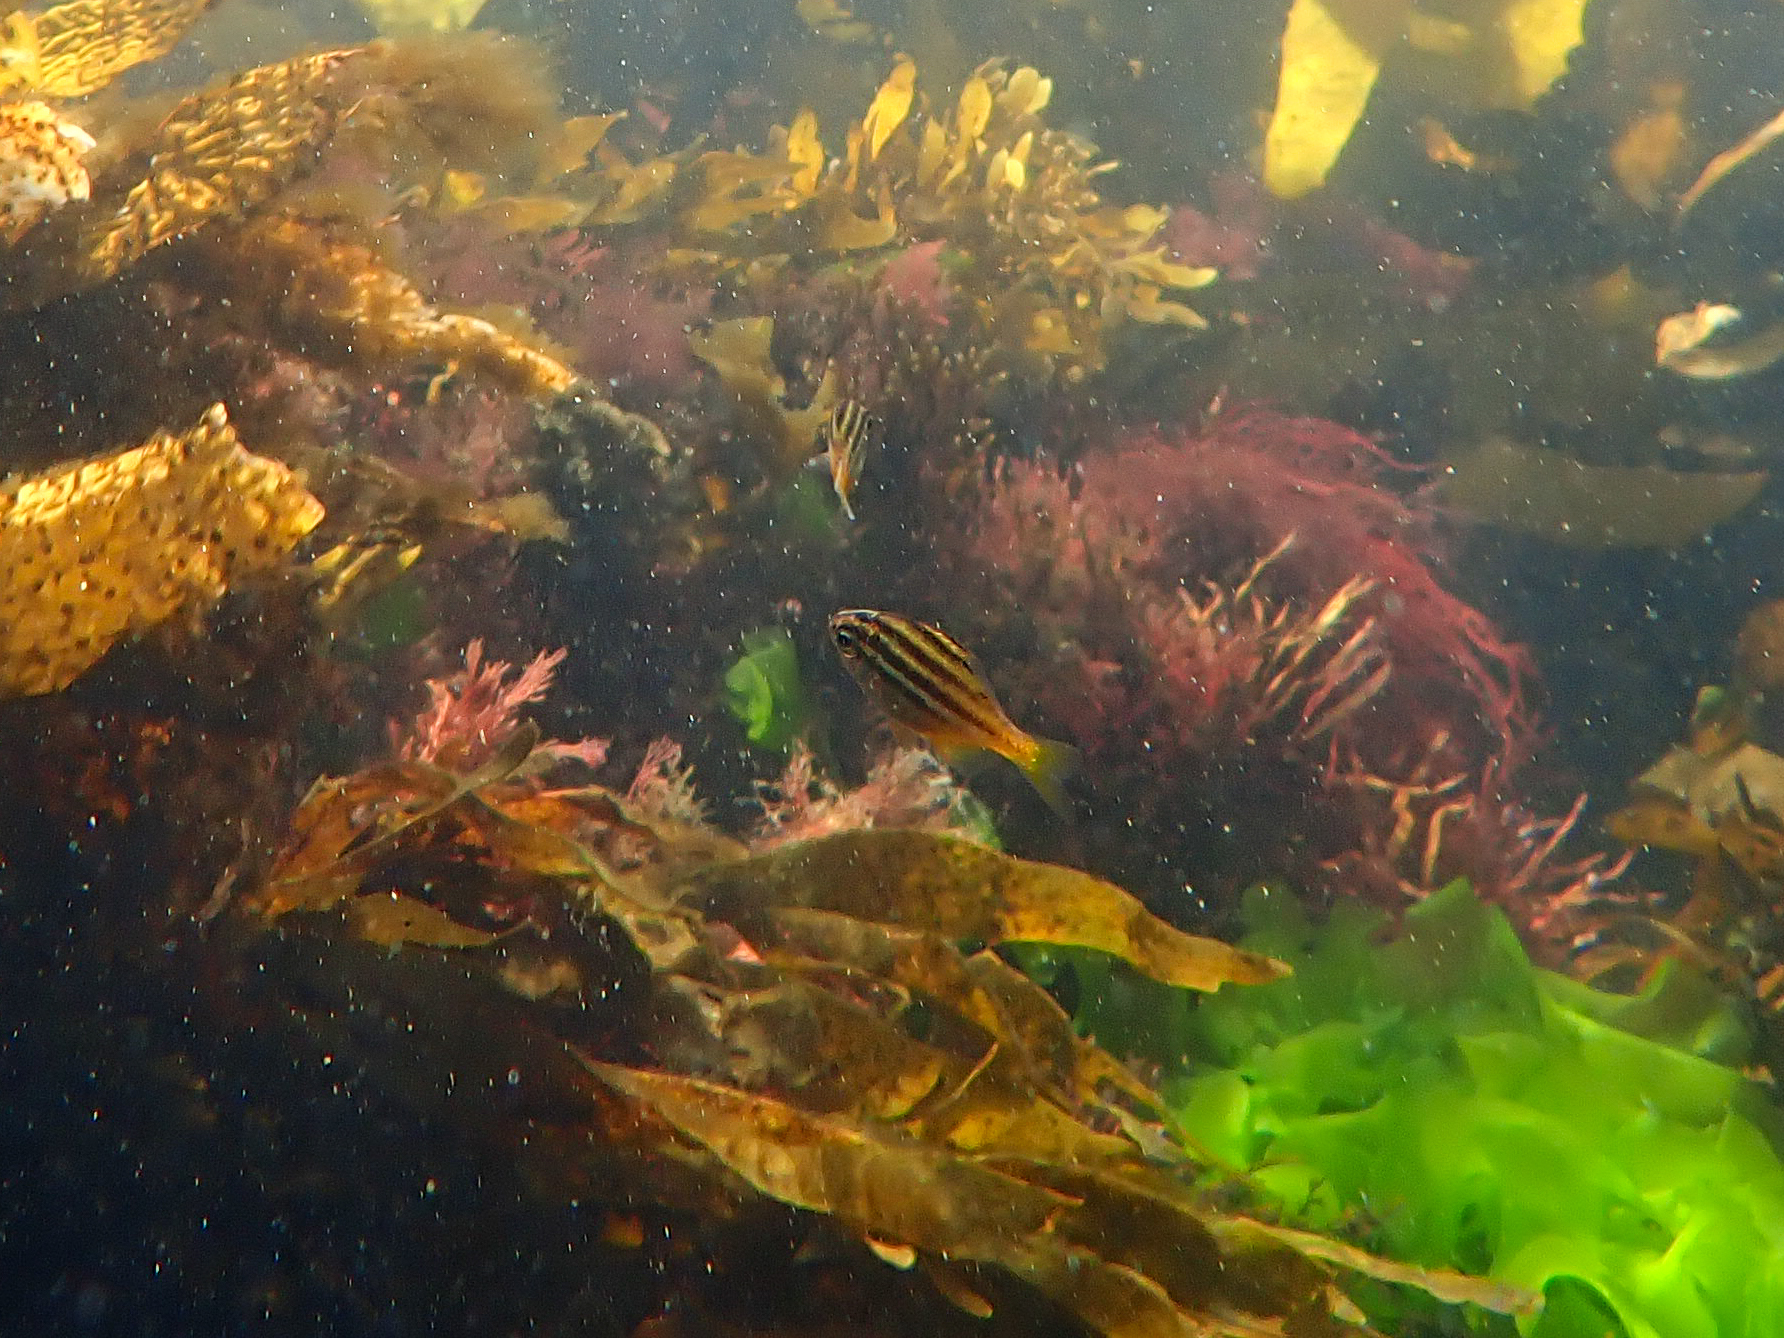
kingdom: Animalia
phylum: Chordata
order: Perciformes
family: Kyphosidae
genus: Atypichthys
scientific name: Atypichthys strigatus
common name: Australian mado
